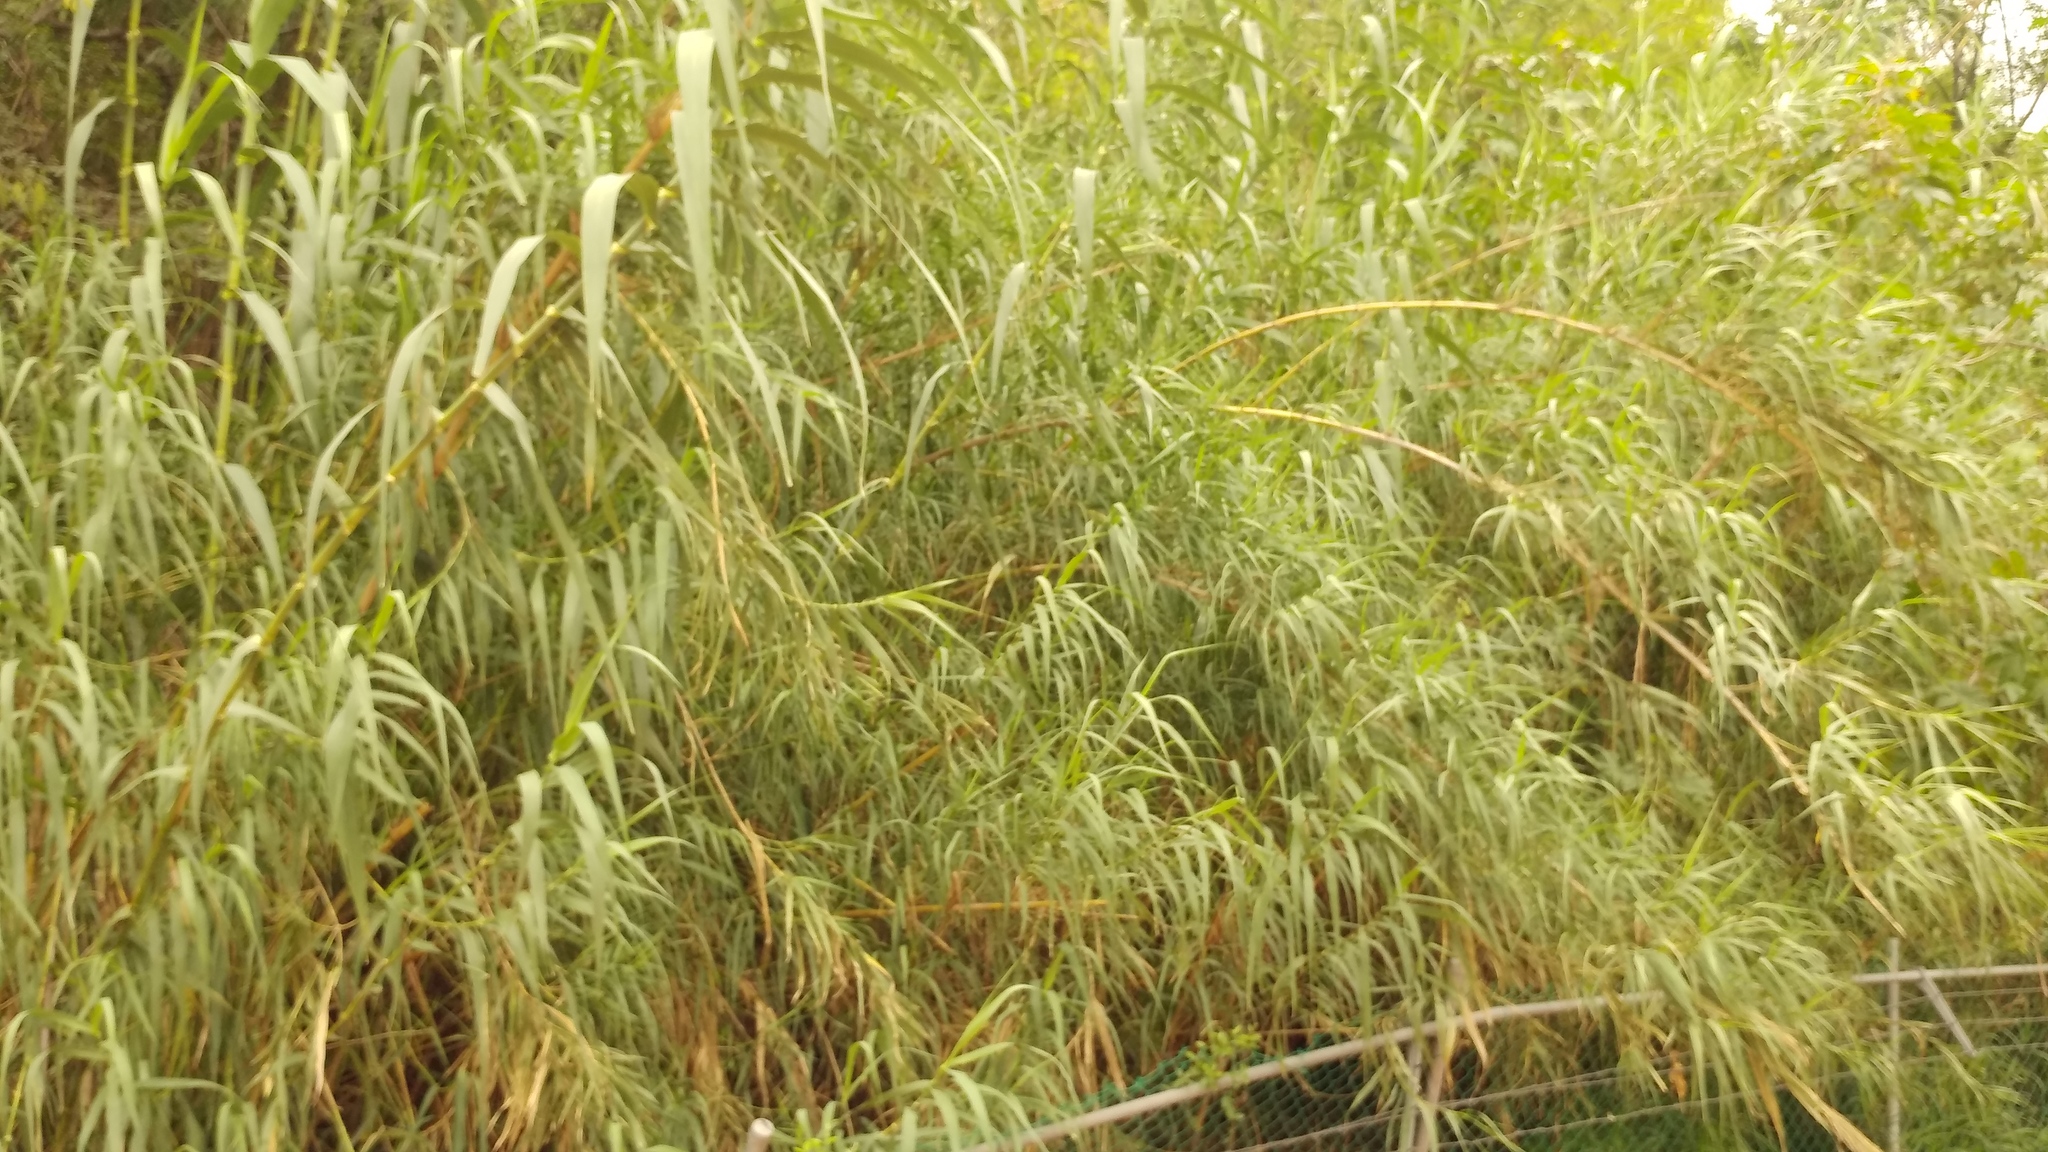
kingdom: Plantae
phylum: Tracheophyta
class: Liliopsida
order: Poales
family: Poaceae
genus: Arundo
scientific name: Arundo donax
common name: Giant reed
